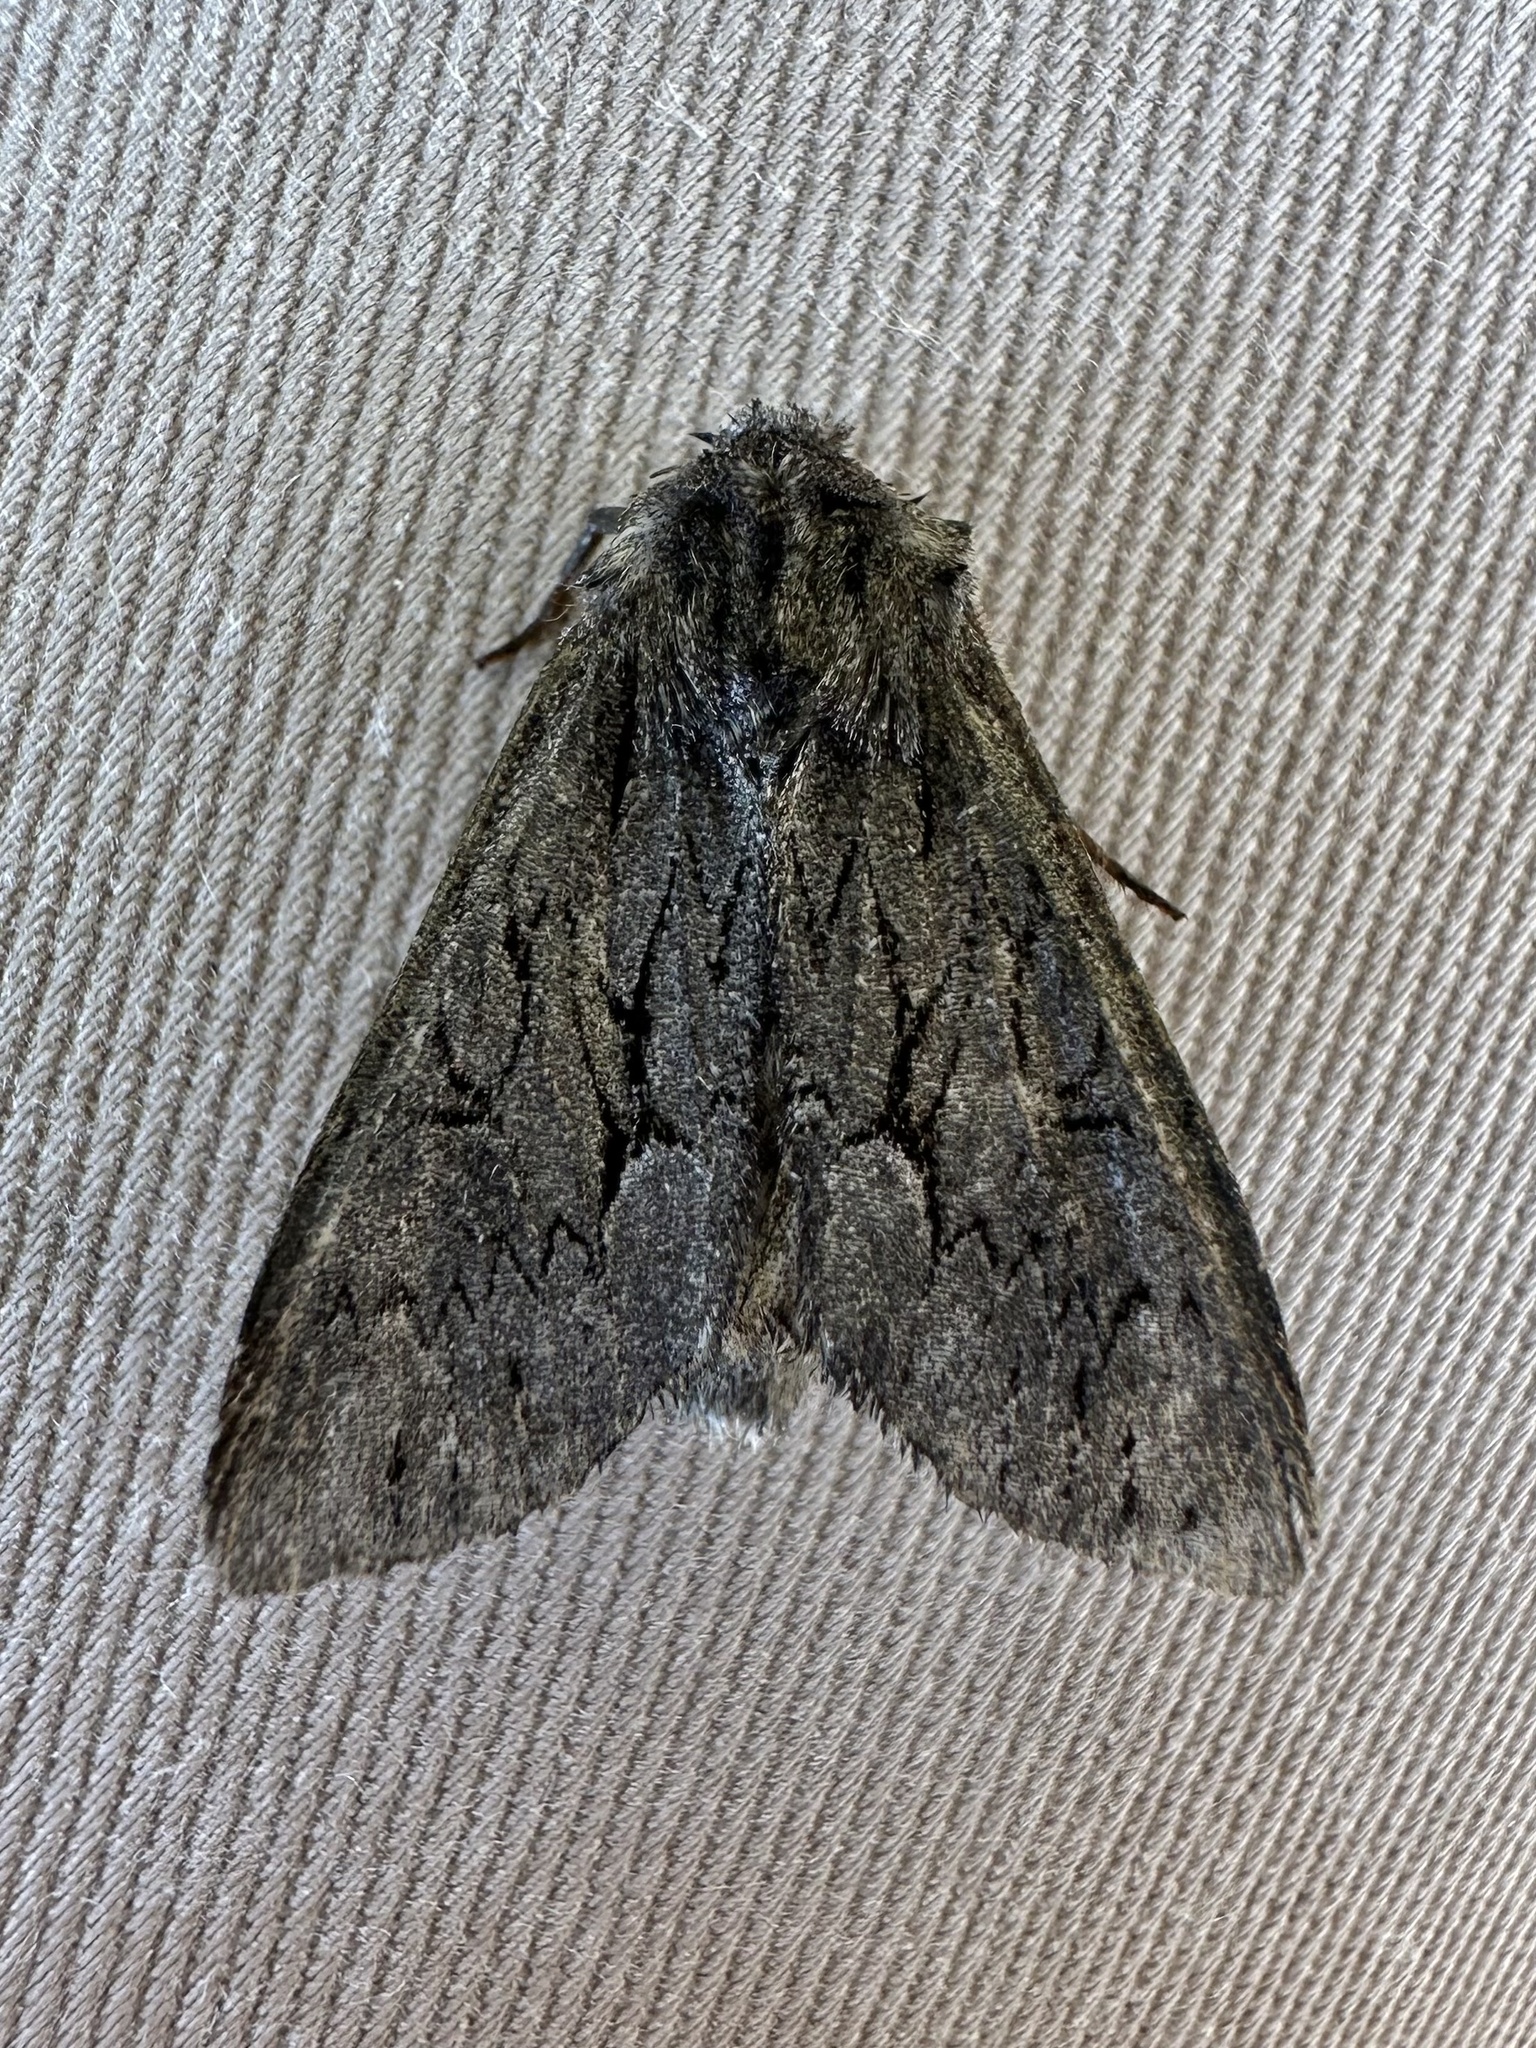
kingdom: Animalia
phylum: Arthropoda
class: Insecta
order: Lepidoptera
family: Noctuidae
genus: Fishia
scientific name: Fishia yosemitae
